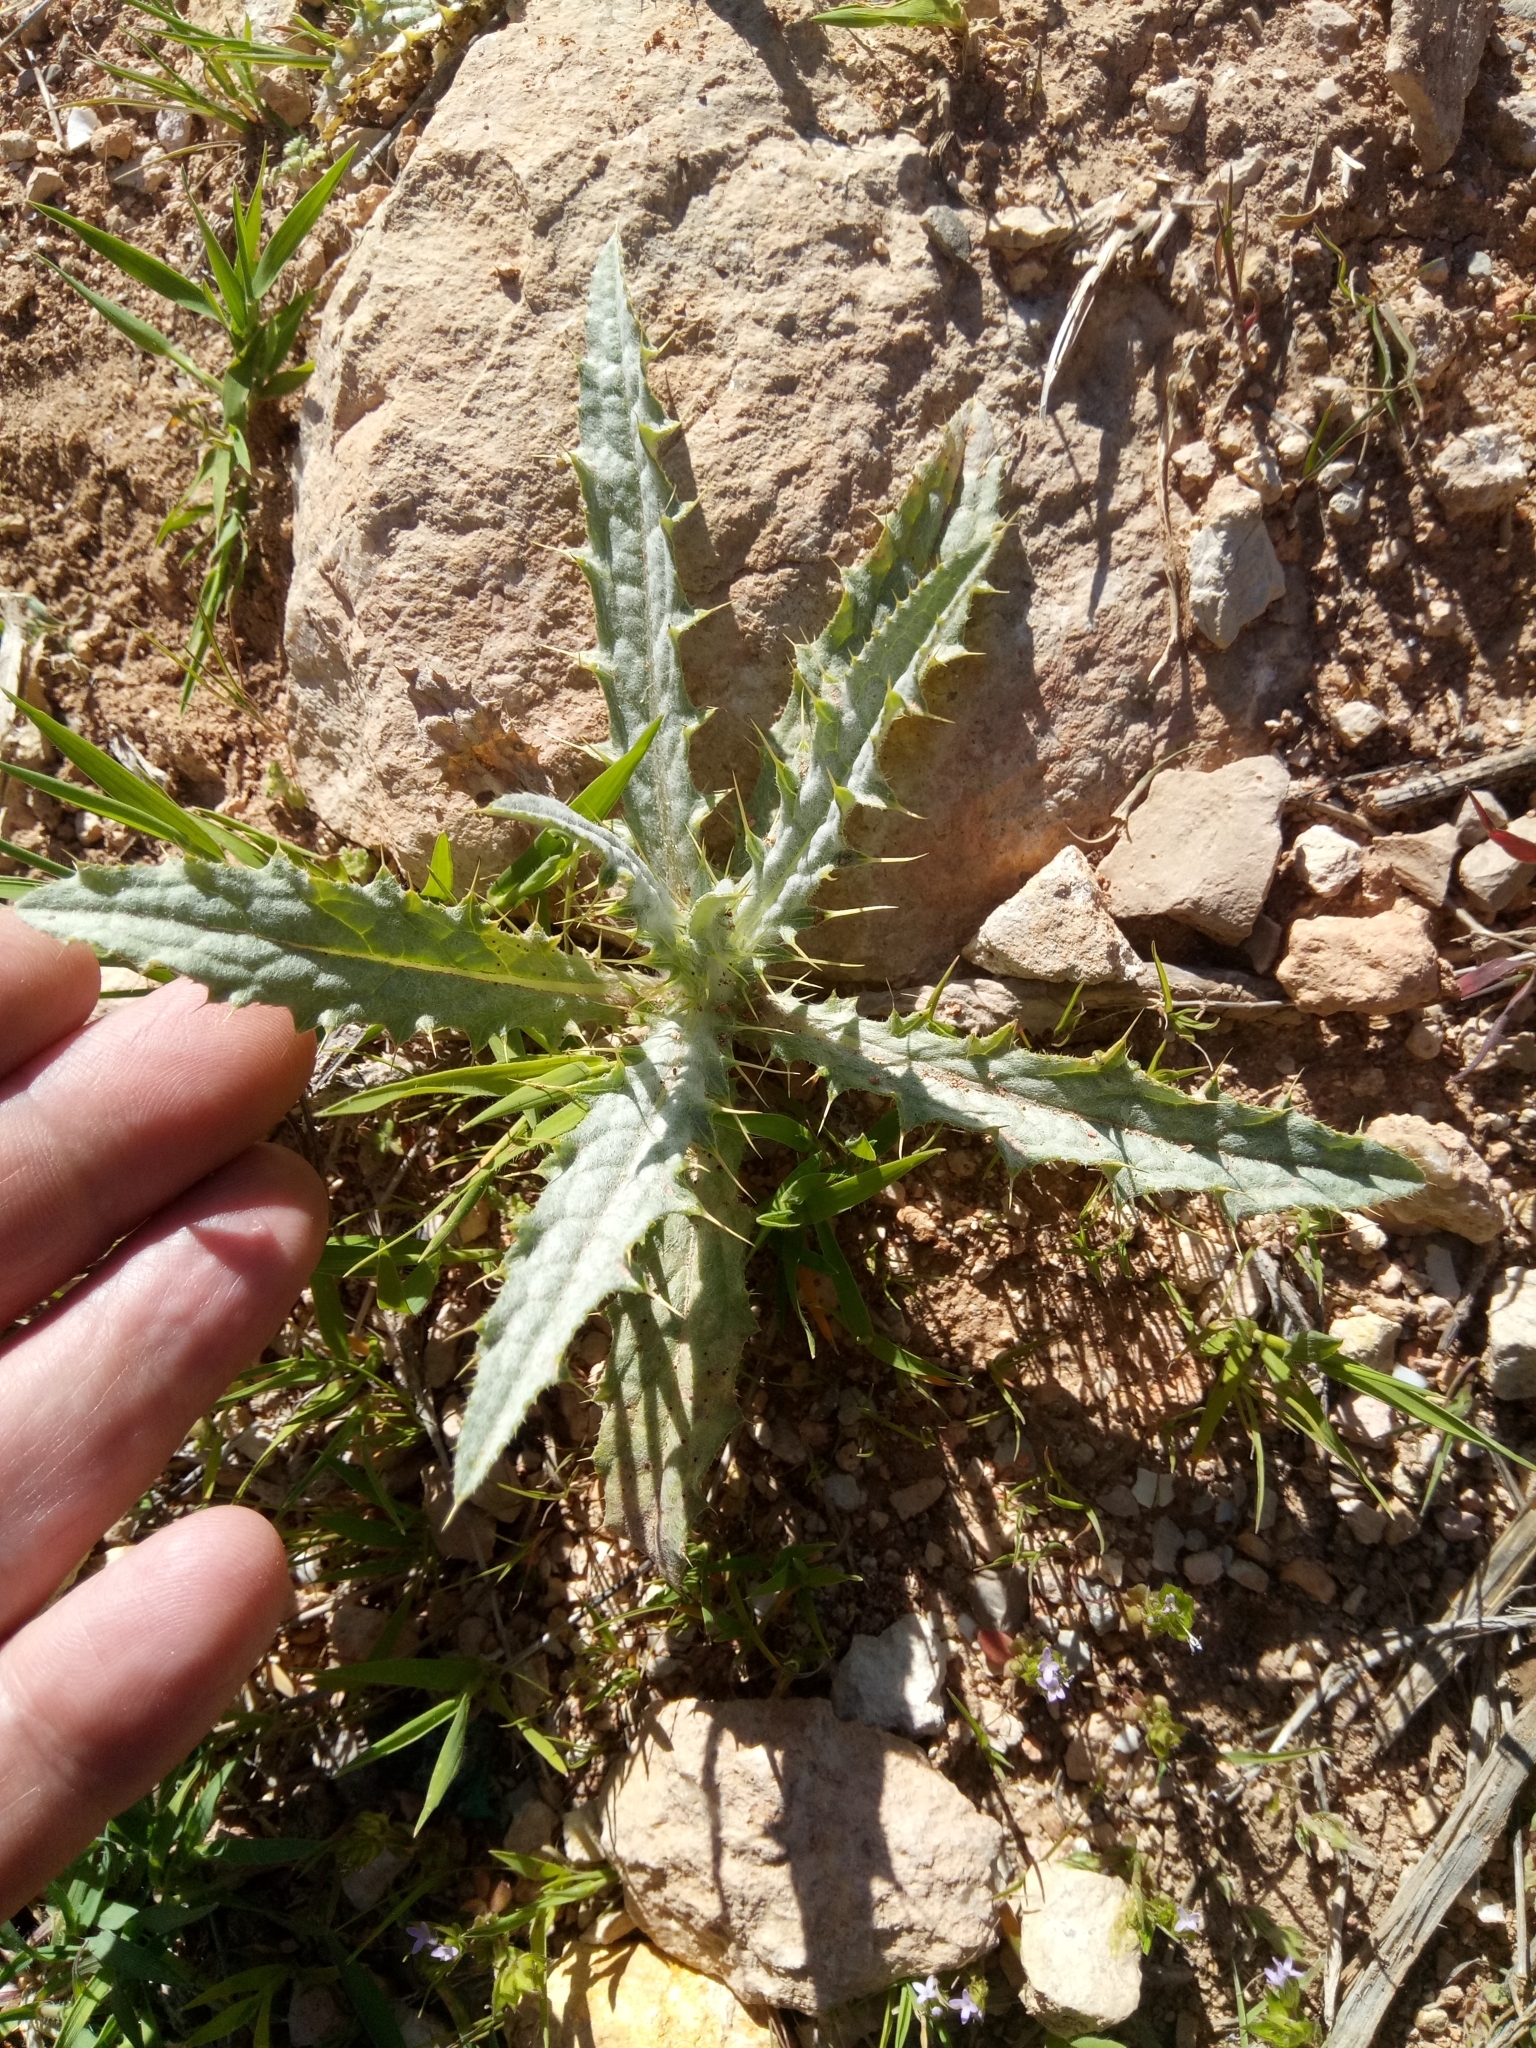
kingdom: Plantae
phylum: Tracheophyta
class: Magnoliopsida
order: Asterales
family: Asteraceae
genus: Picnomon
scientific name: Picnomon acarna
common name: Soldier thistle
